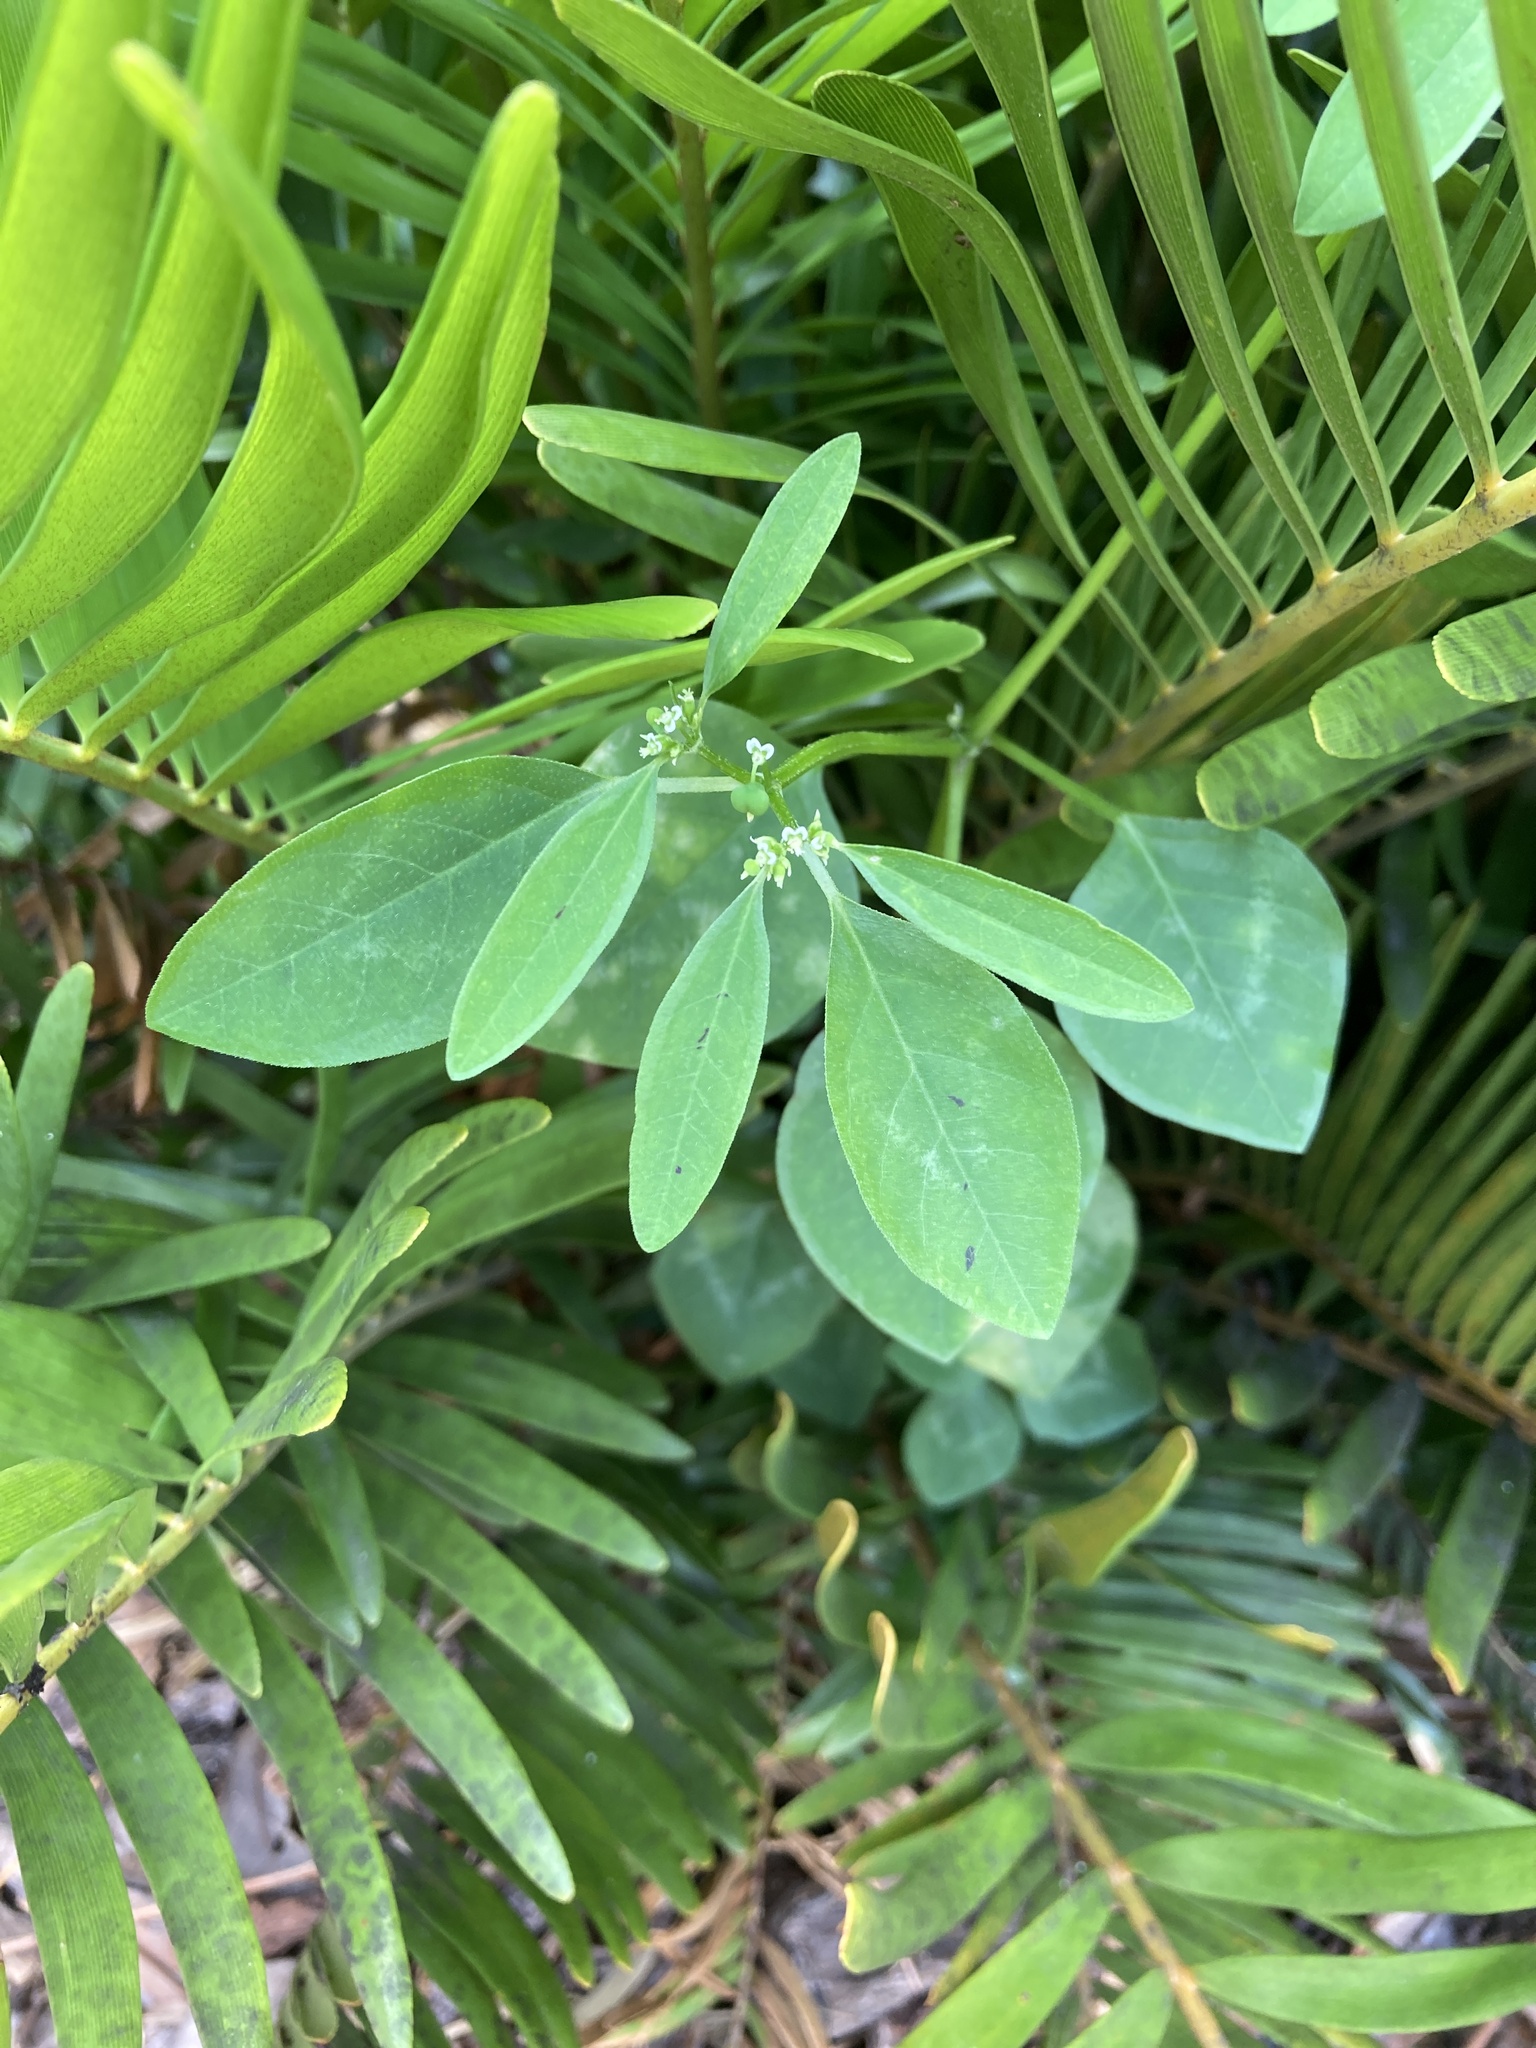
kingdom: Plantae
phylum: Tracheophyta
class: Magnoliopsida
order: Malpighiales
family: Euphorbiaceae
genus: Euphorbia
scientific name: Euphorbia graminea
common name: Grassleaf spurge
